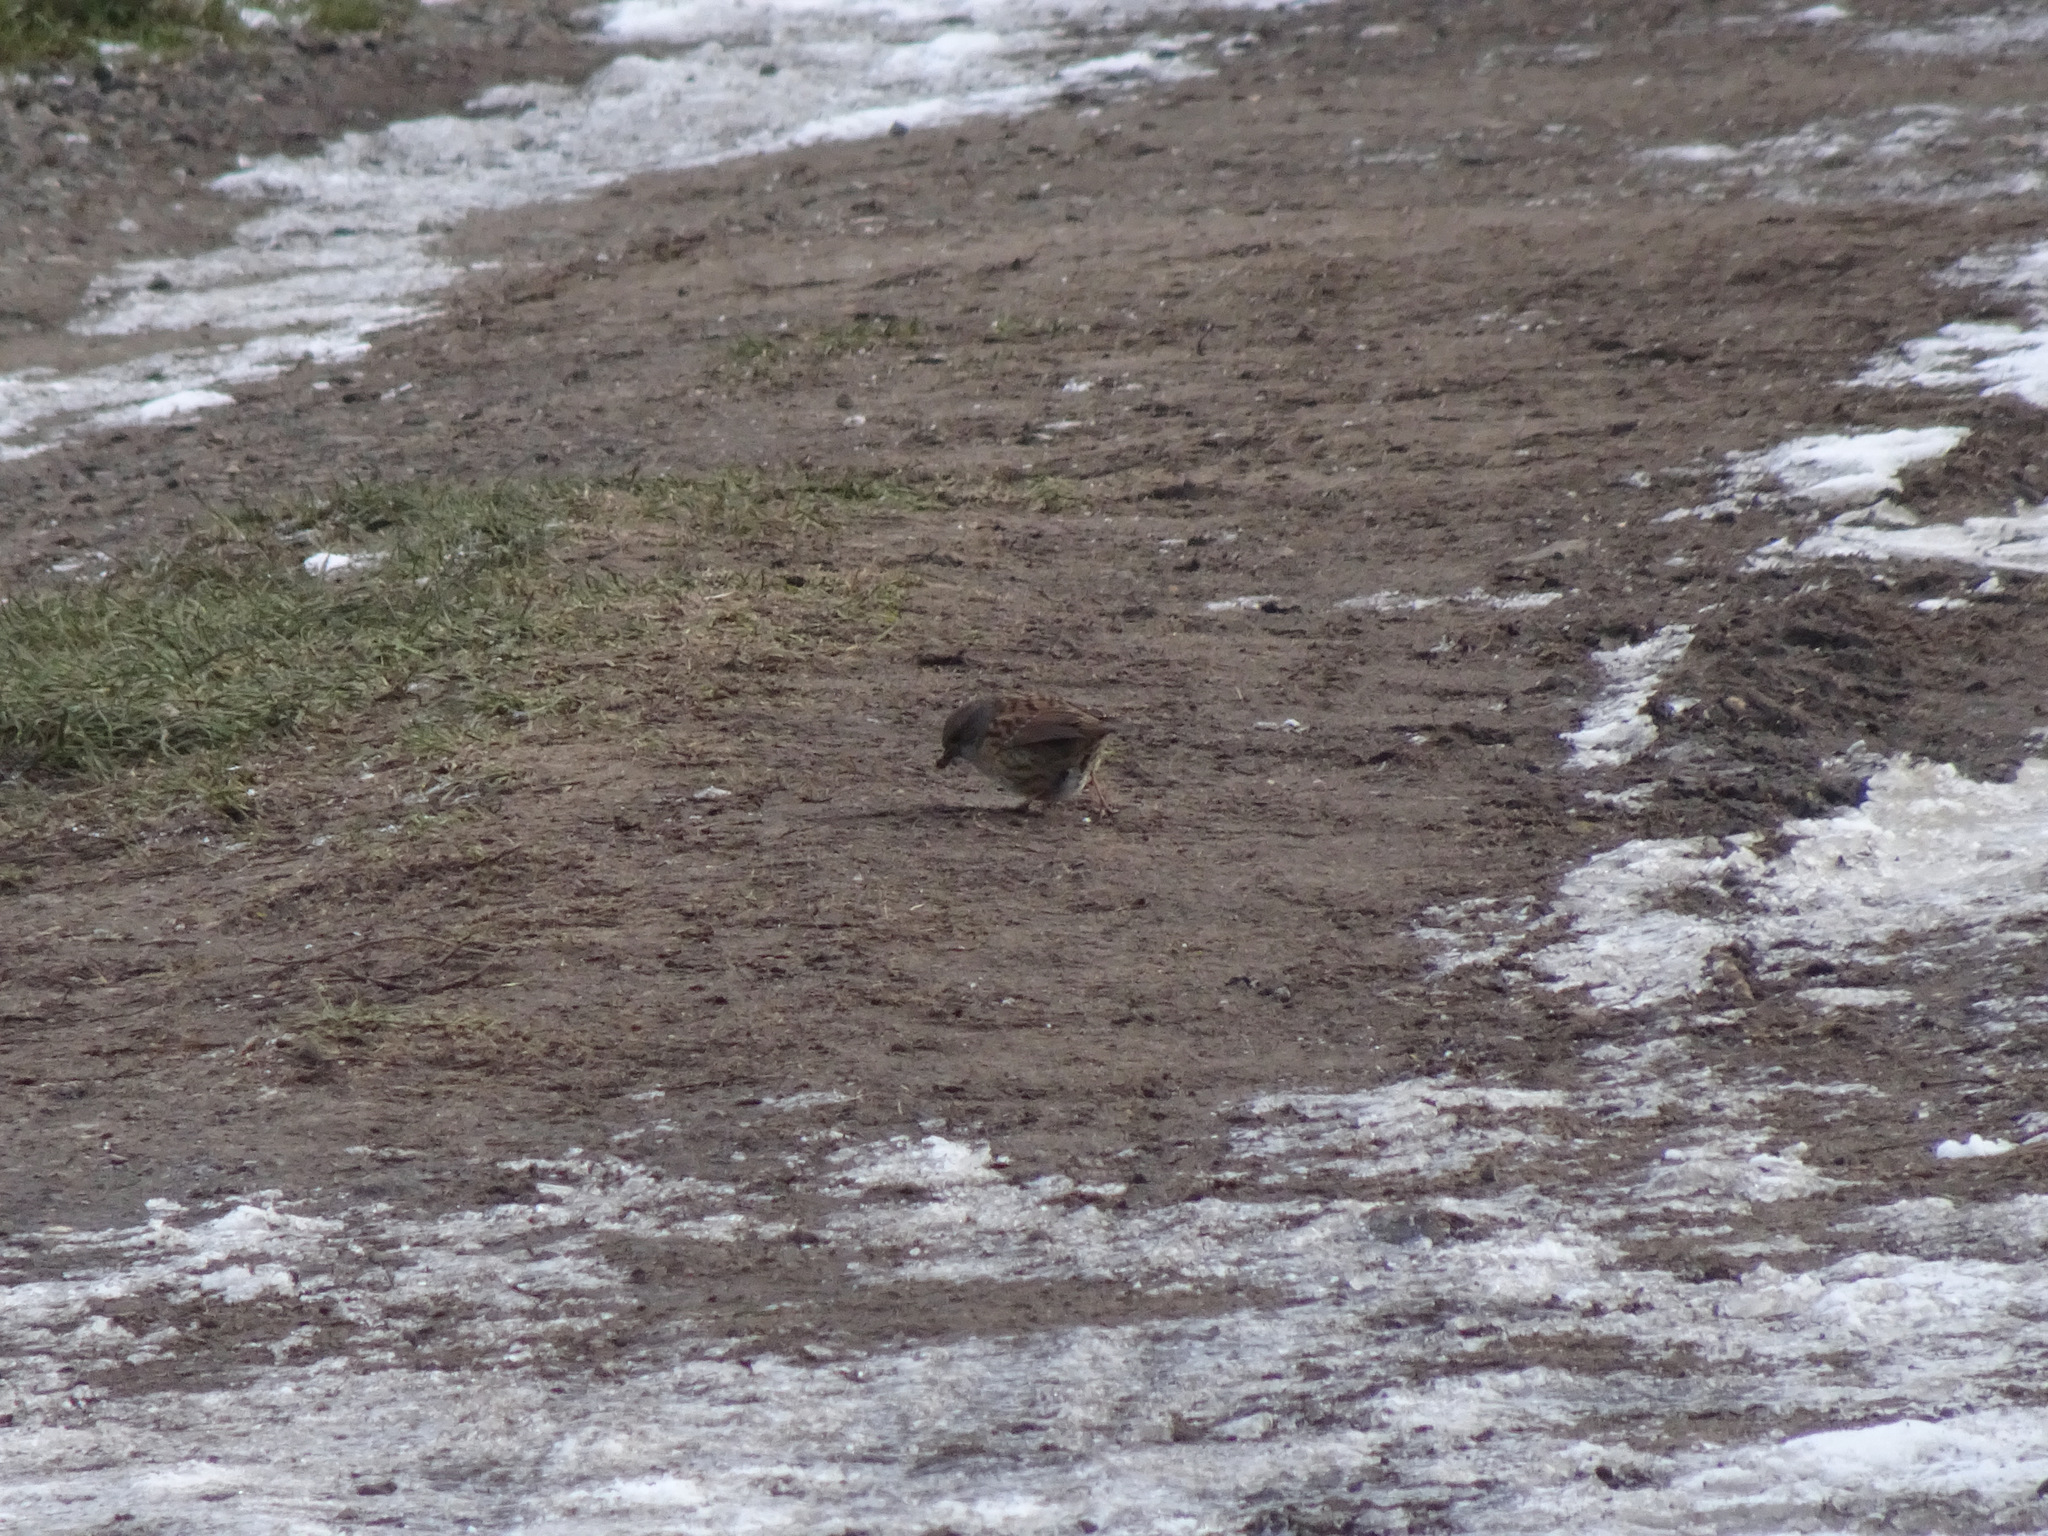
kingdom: Animalia
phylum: Chordata
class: Aves
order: Passeriformes
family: Prunellidae
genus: Prunella
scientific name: Prunella modularis
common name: Dunnock
